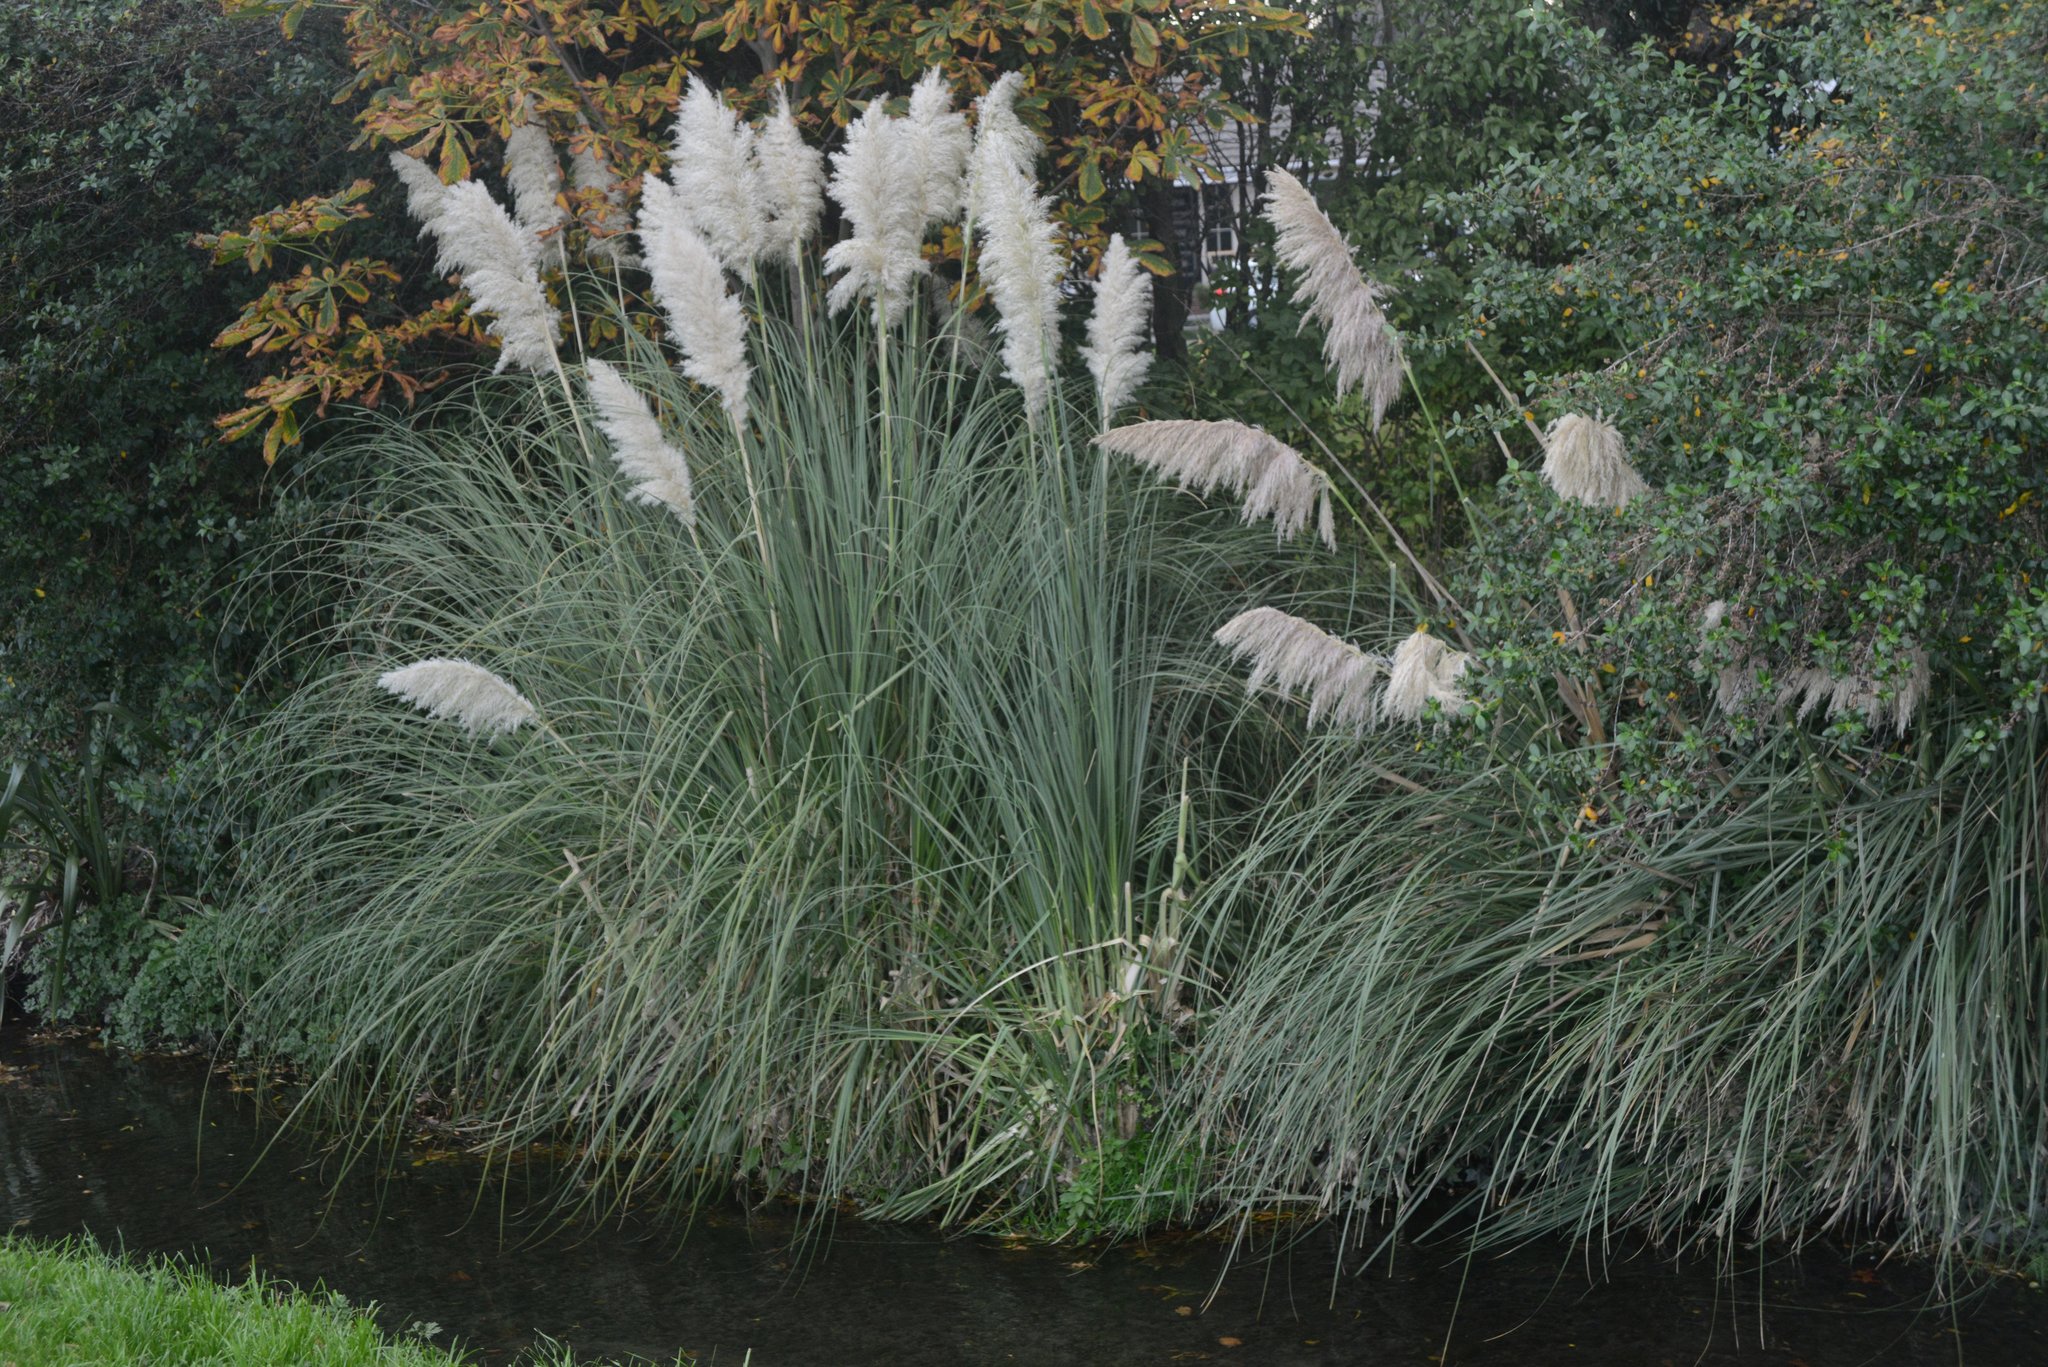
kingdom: Plantae
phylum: Tracheophyta
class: Liliopsida
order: Poales
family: Poaceae
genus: Cortaderia
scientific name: Cortaderia selloana
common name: Uruguayan pampas grass
